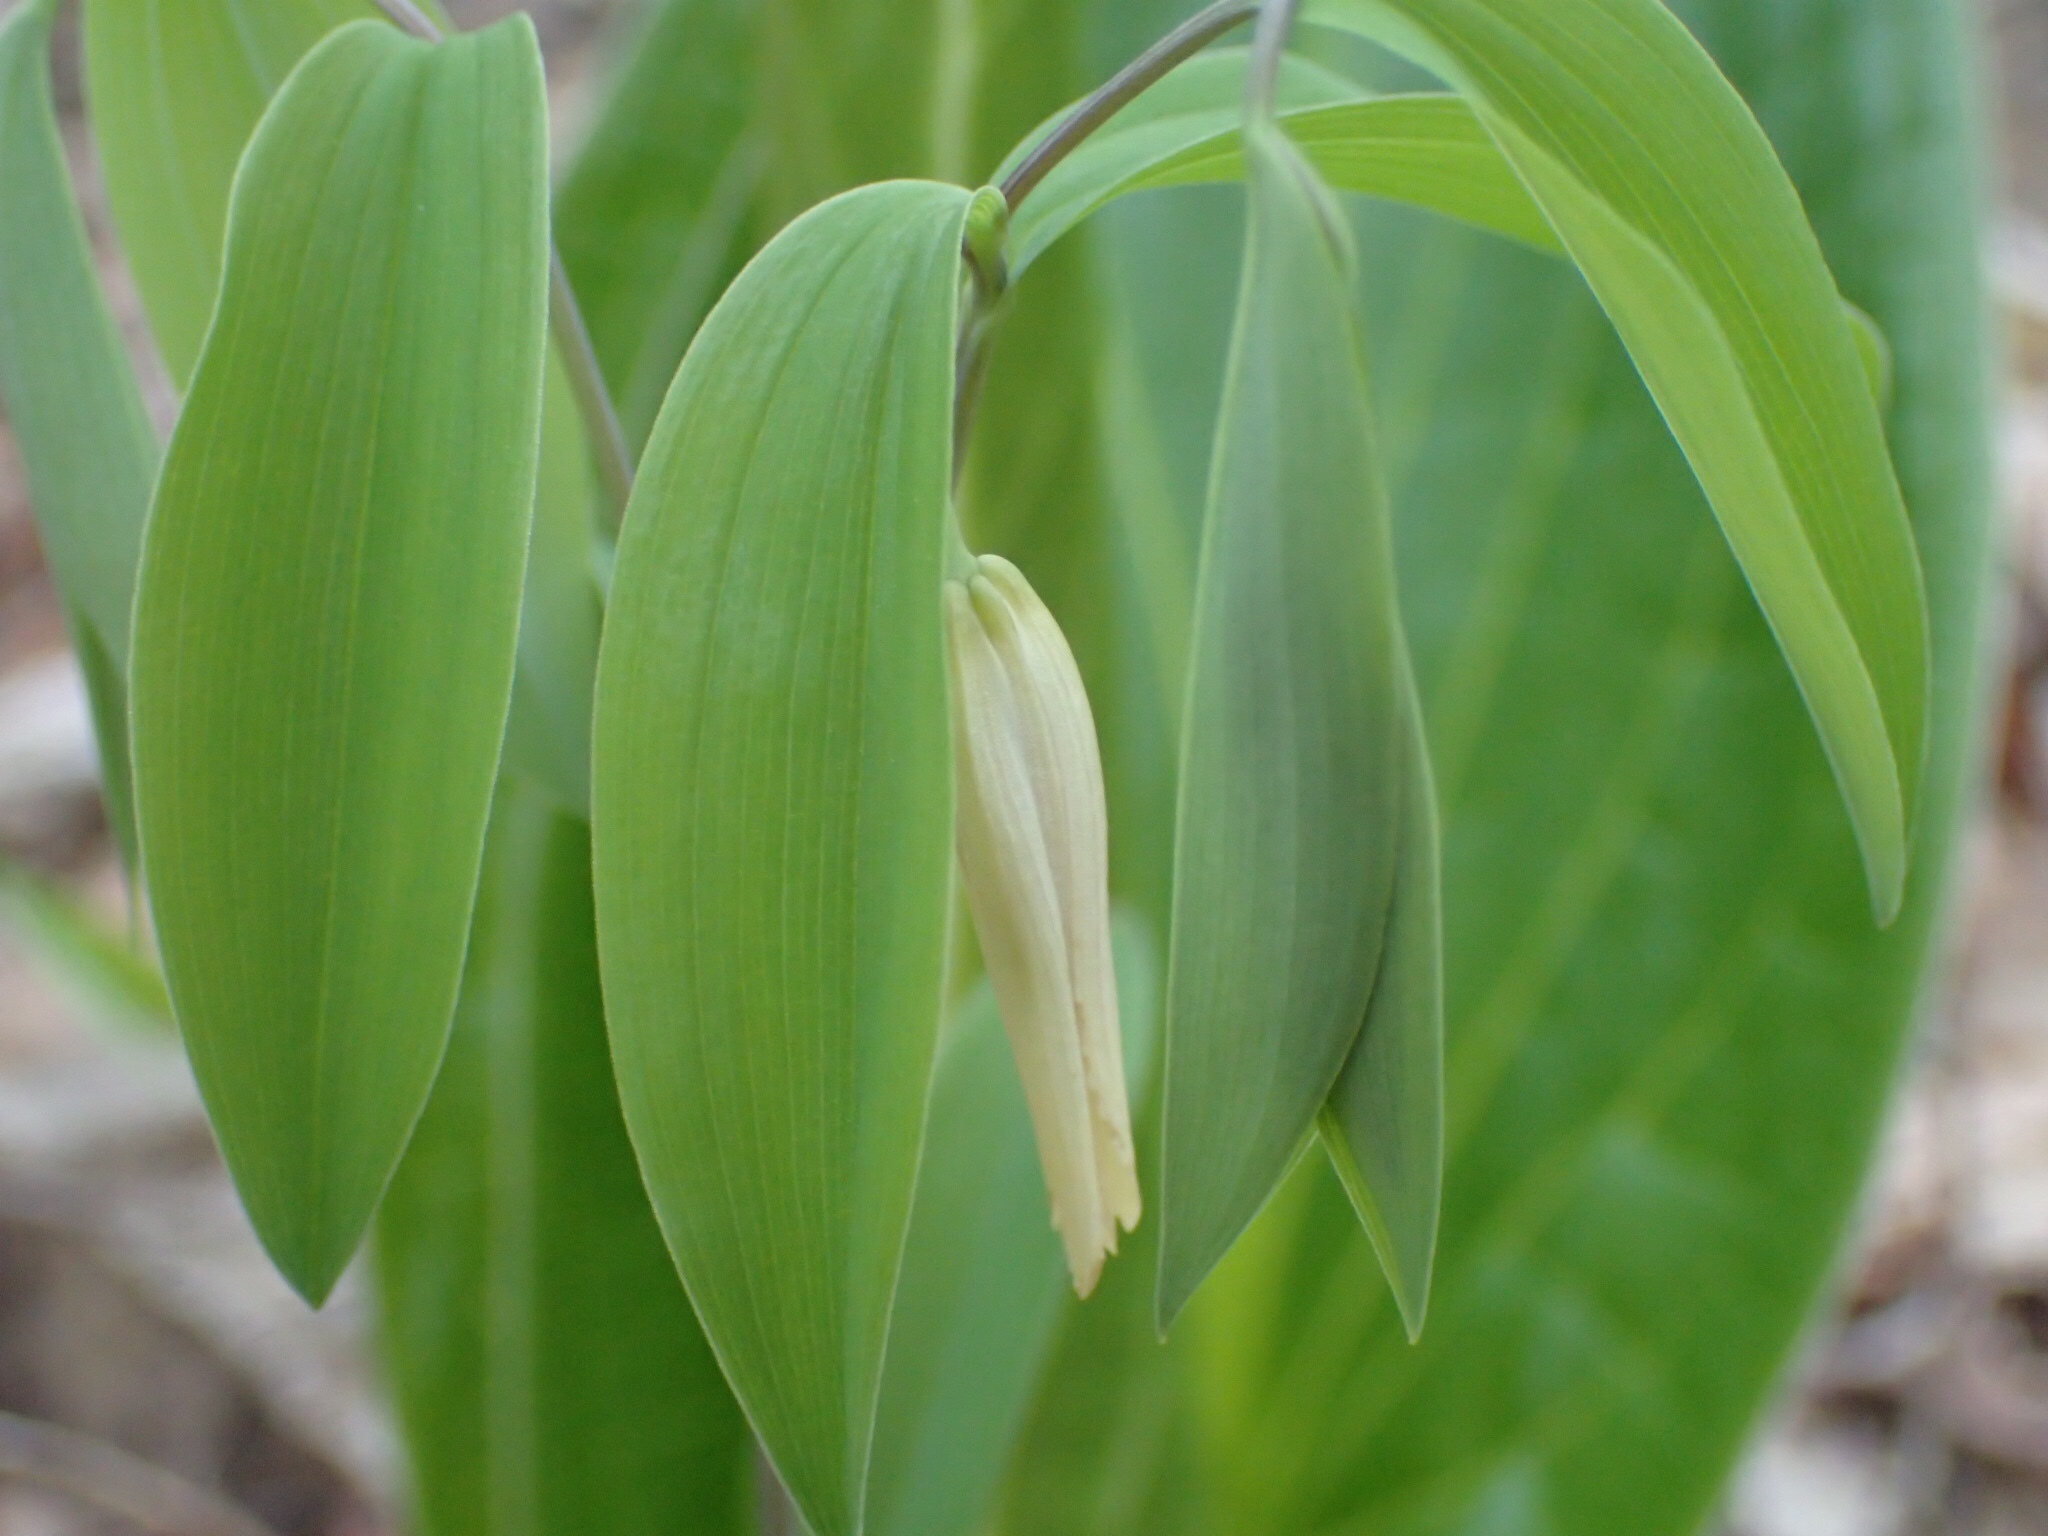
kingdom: Plantae
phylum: Tracheophyta
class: Liliopsida
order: Liliales
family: Colchicaceae
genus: Uvularia
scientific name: Uvularia sessilifolia
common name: Straw-lily
